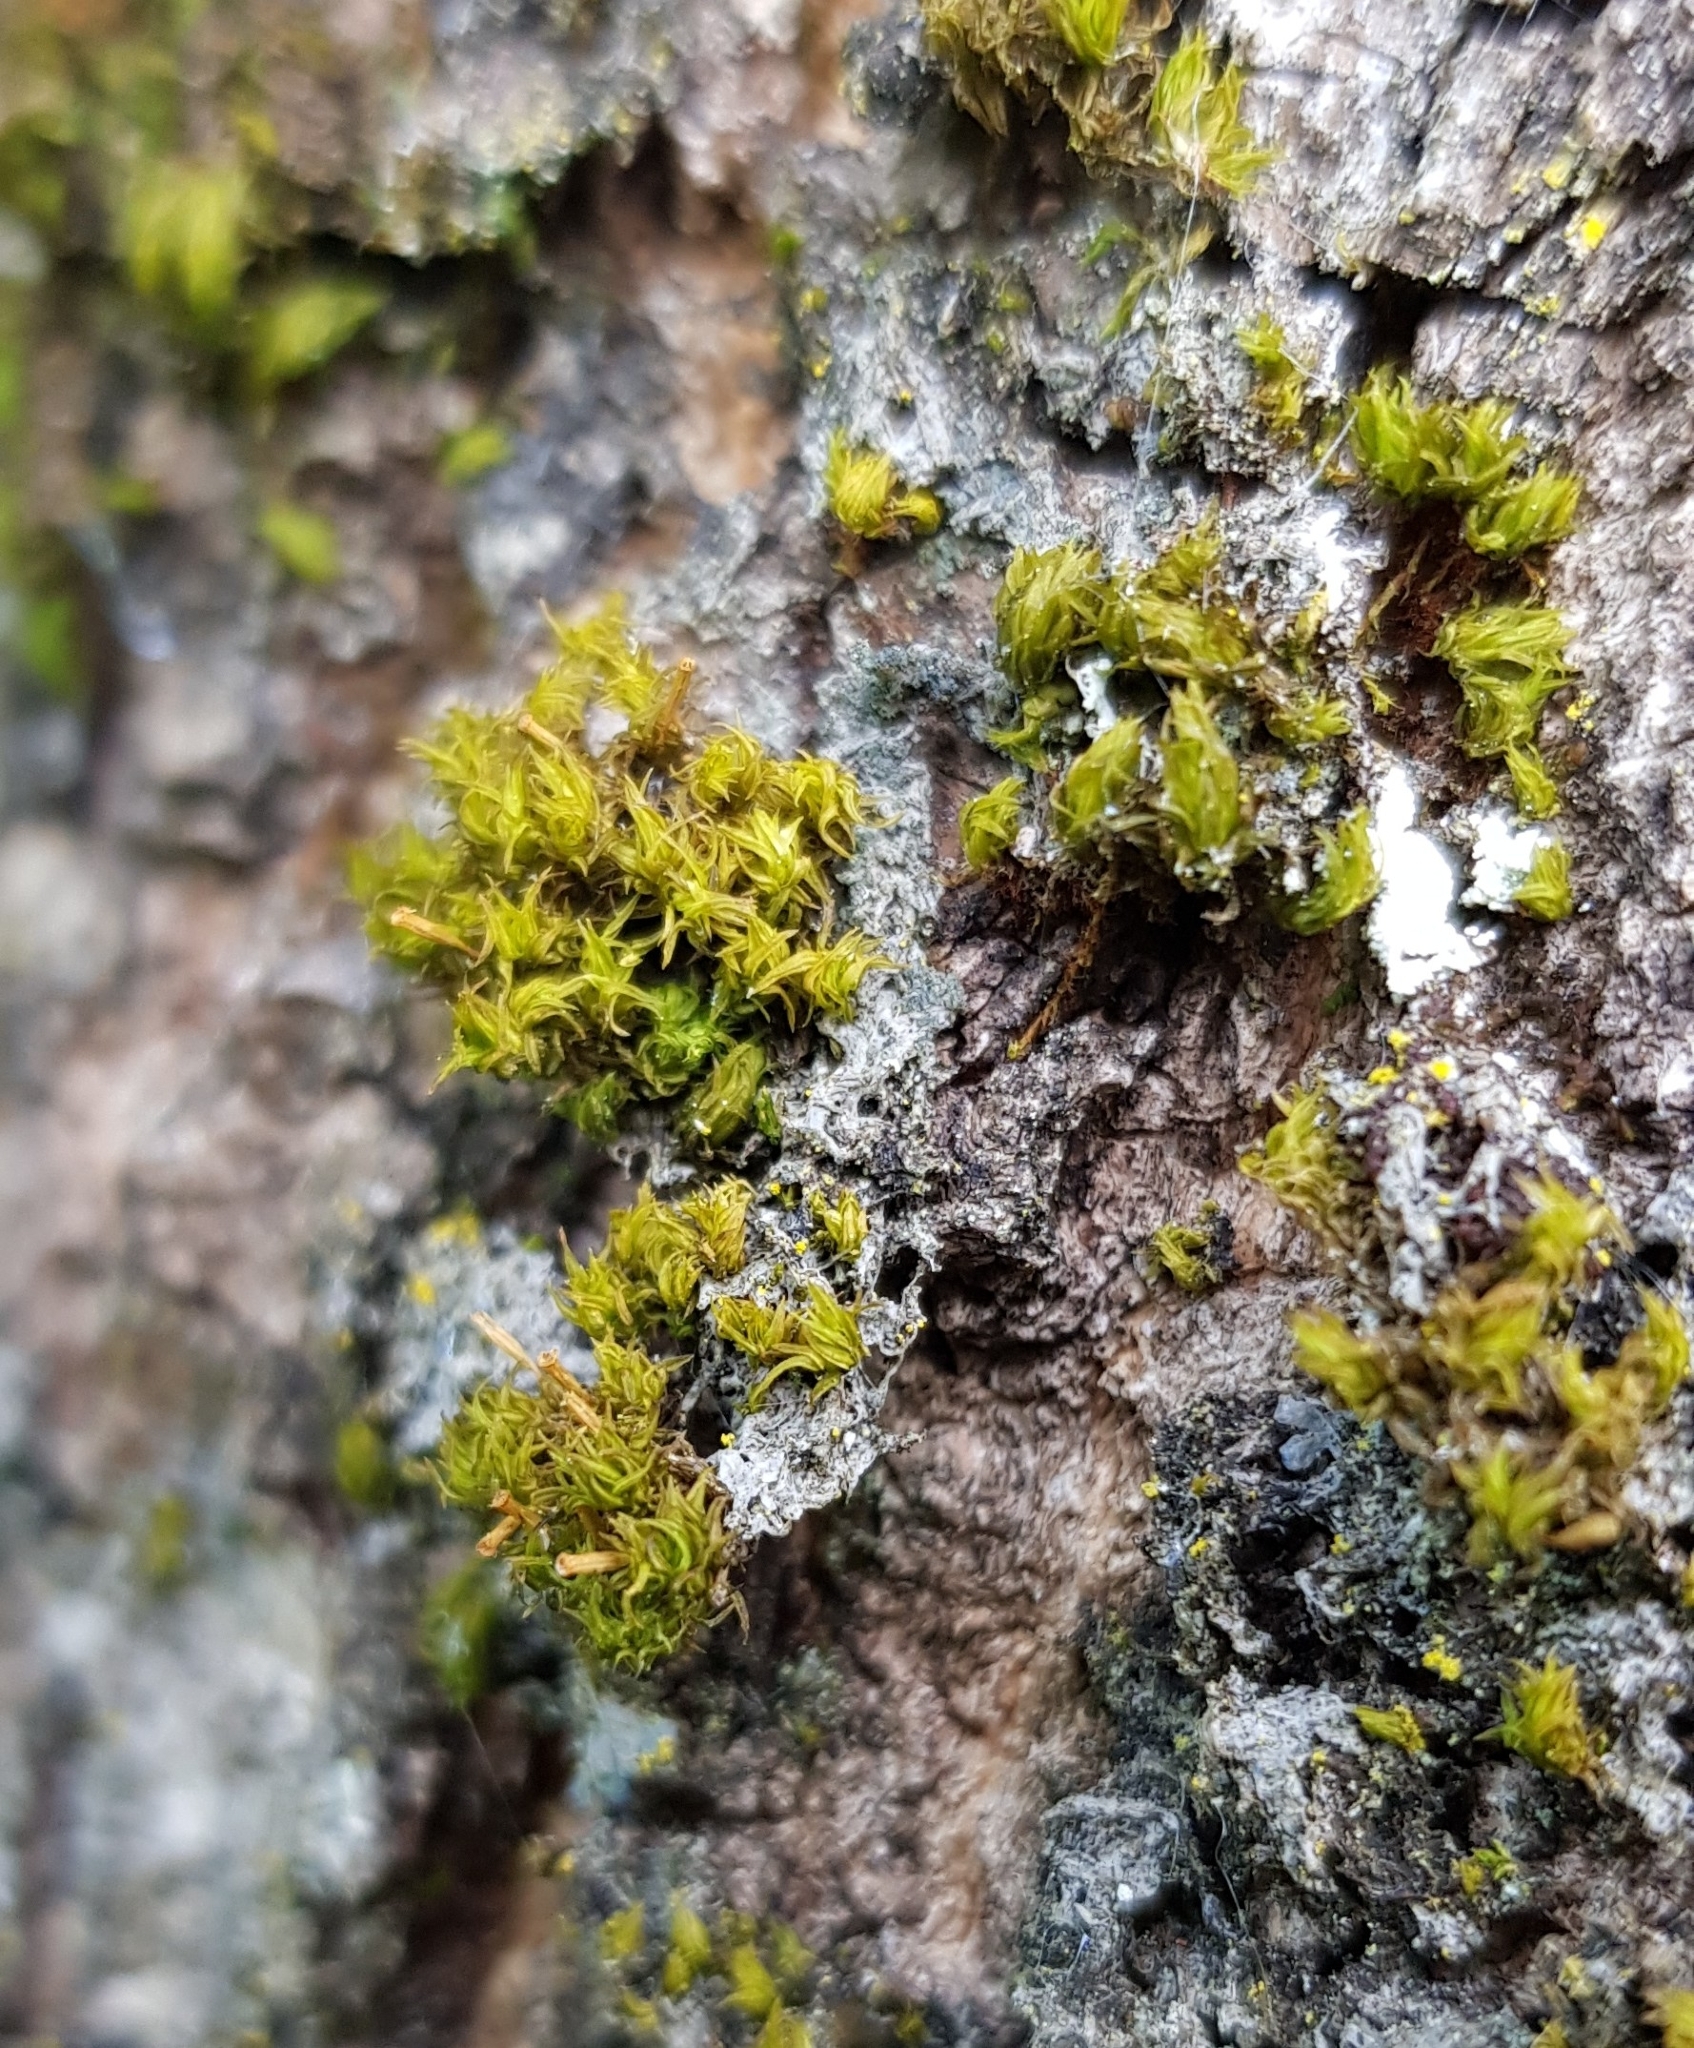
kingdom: Plantae
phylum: Bryophyta
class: Bryopsida
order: Orthotrichales
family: Orthotrichaceae
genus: Ulota
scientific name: Ulota crispa
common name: Crisped pincushion moss
